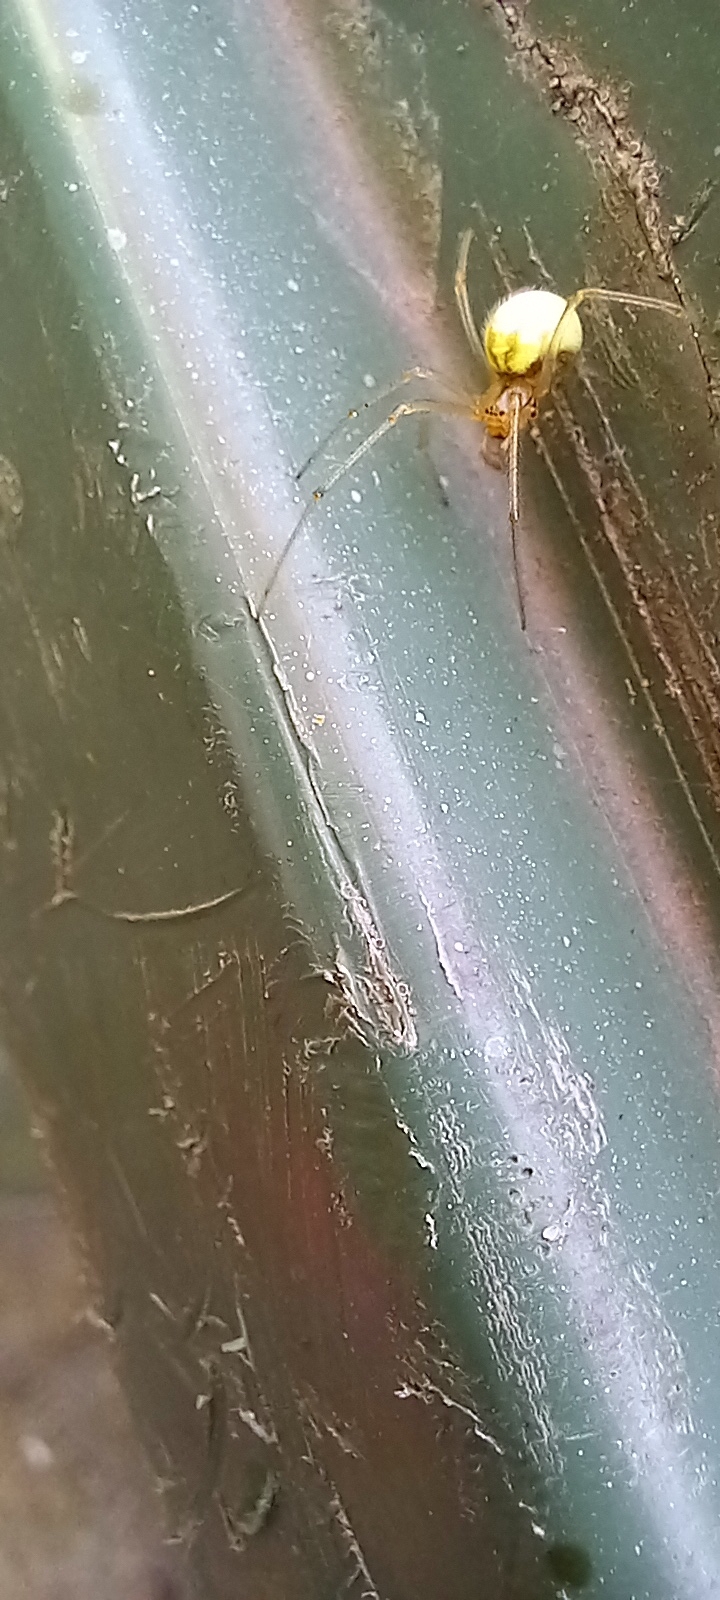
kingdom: Animalia
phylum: Arthropoda
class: Arachnida
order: Araneae
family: Theridiidae
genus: Enoplognatha
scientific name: Enoplognatha ovata
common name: Common candy-striped spider
